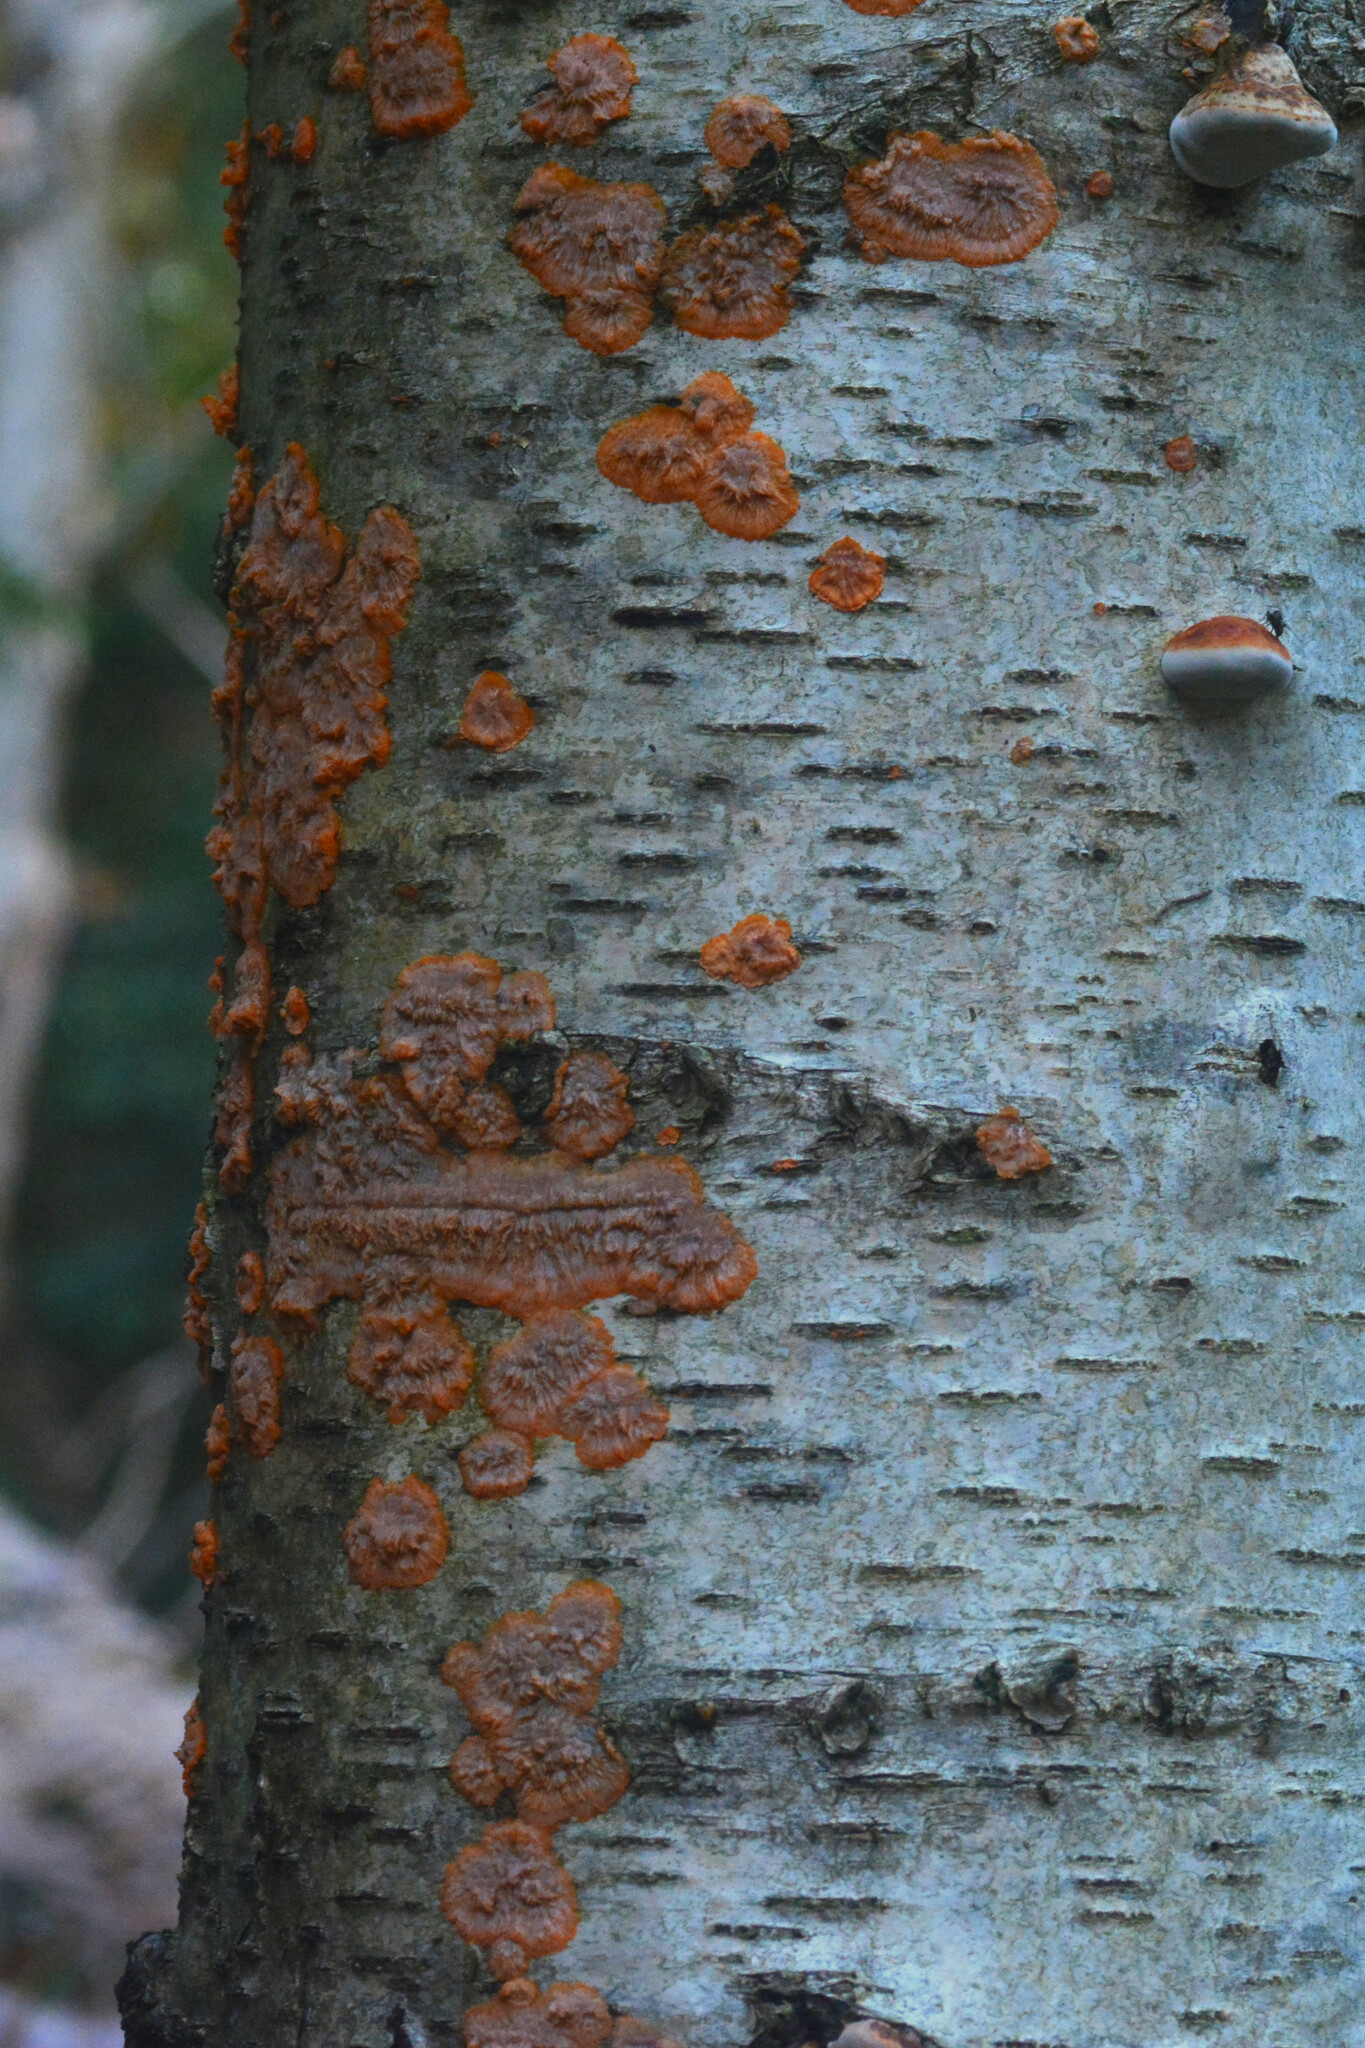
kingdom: Fungi
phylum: Basidiomycota
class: Agaricomycetes
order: Polyporales
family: Meruliaceae
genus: Phlebia
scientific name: Phlebia radiata
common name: Wrinkled crust
